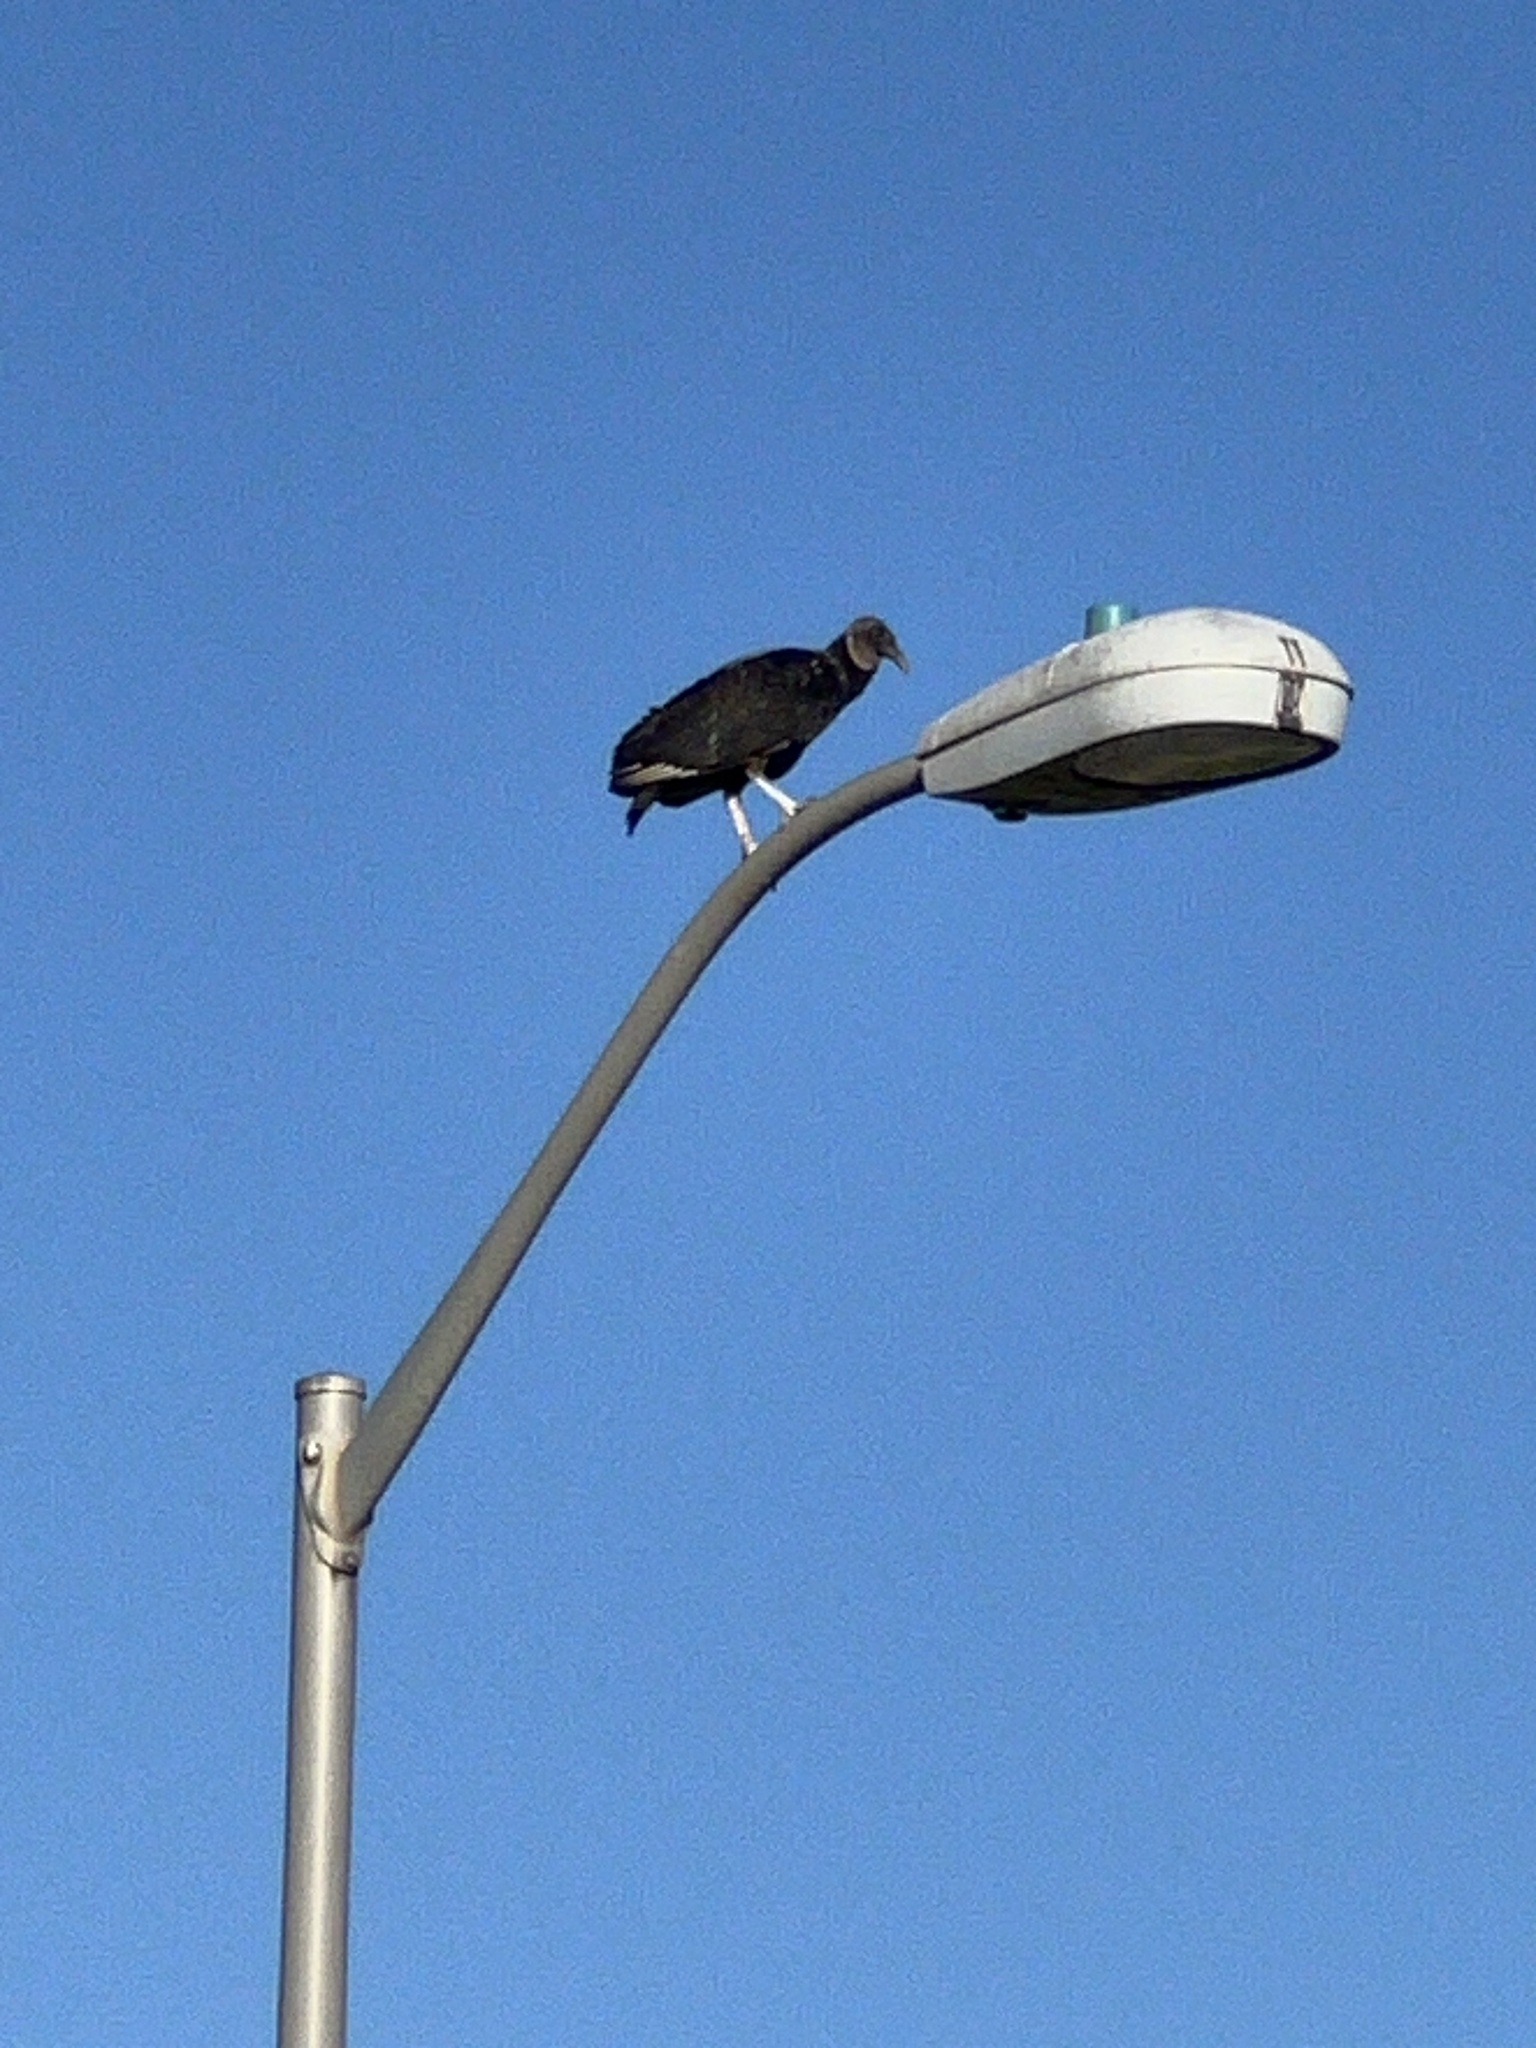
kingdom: Animalia
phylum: Chordata
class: Aves
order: Accipitriformes
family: Cathartidae
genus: Coragyps
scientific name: Coragyps atratus
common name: Black vulture
